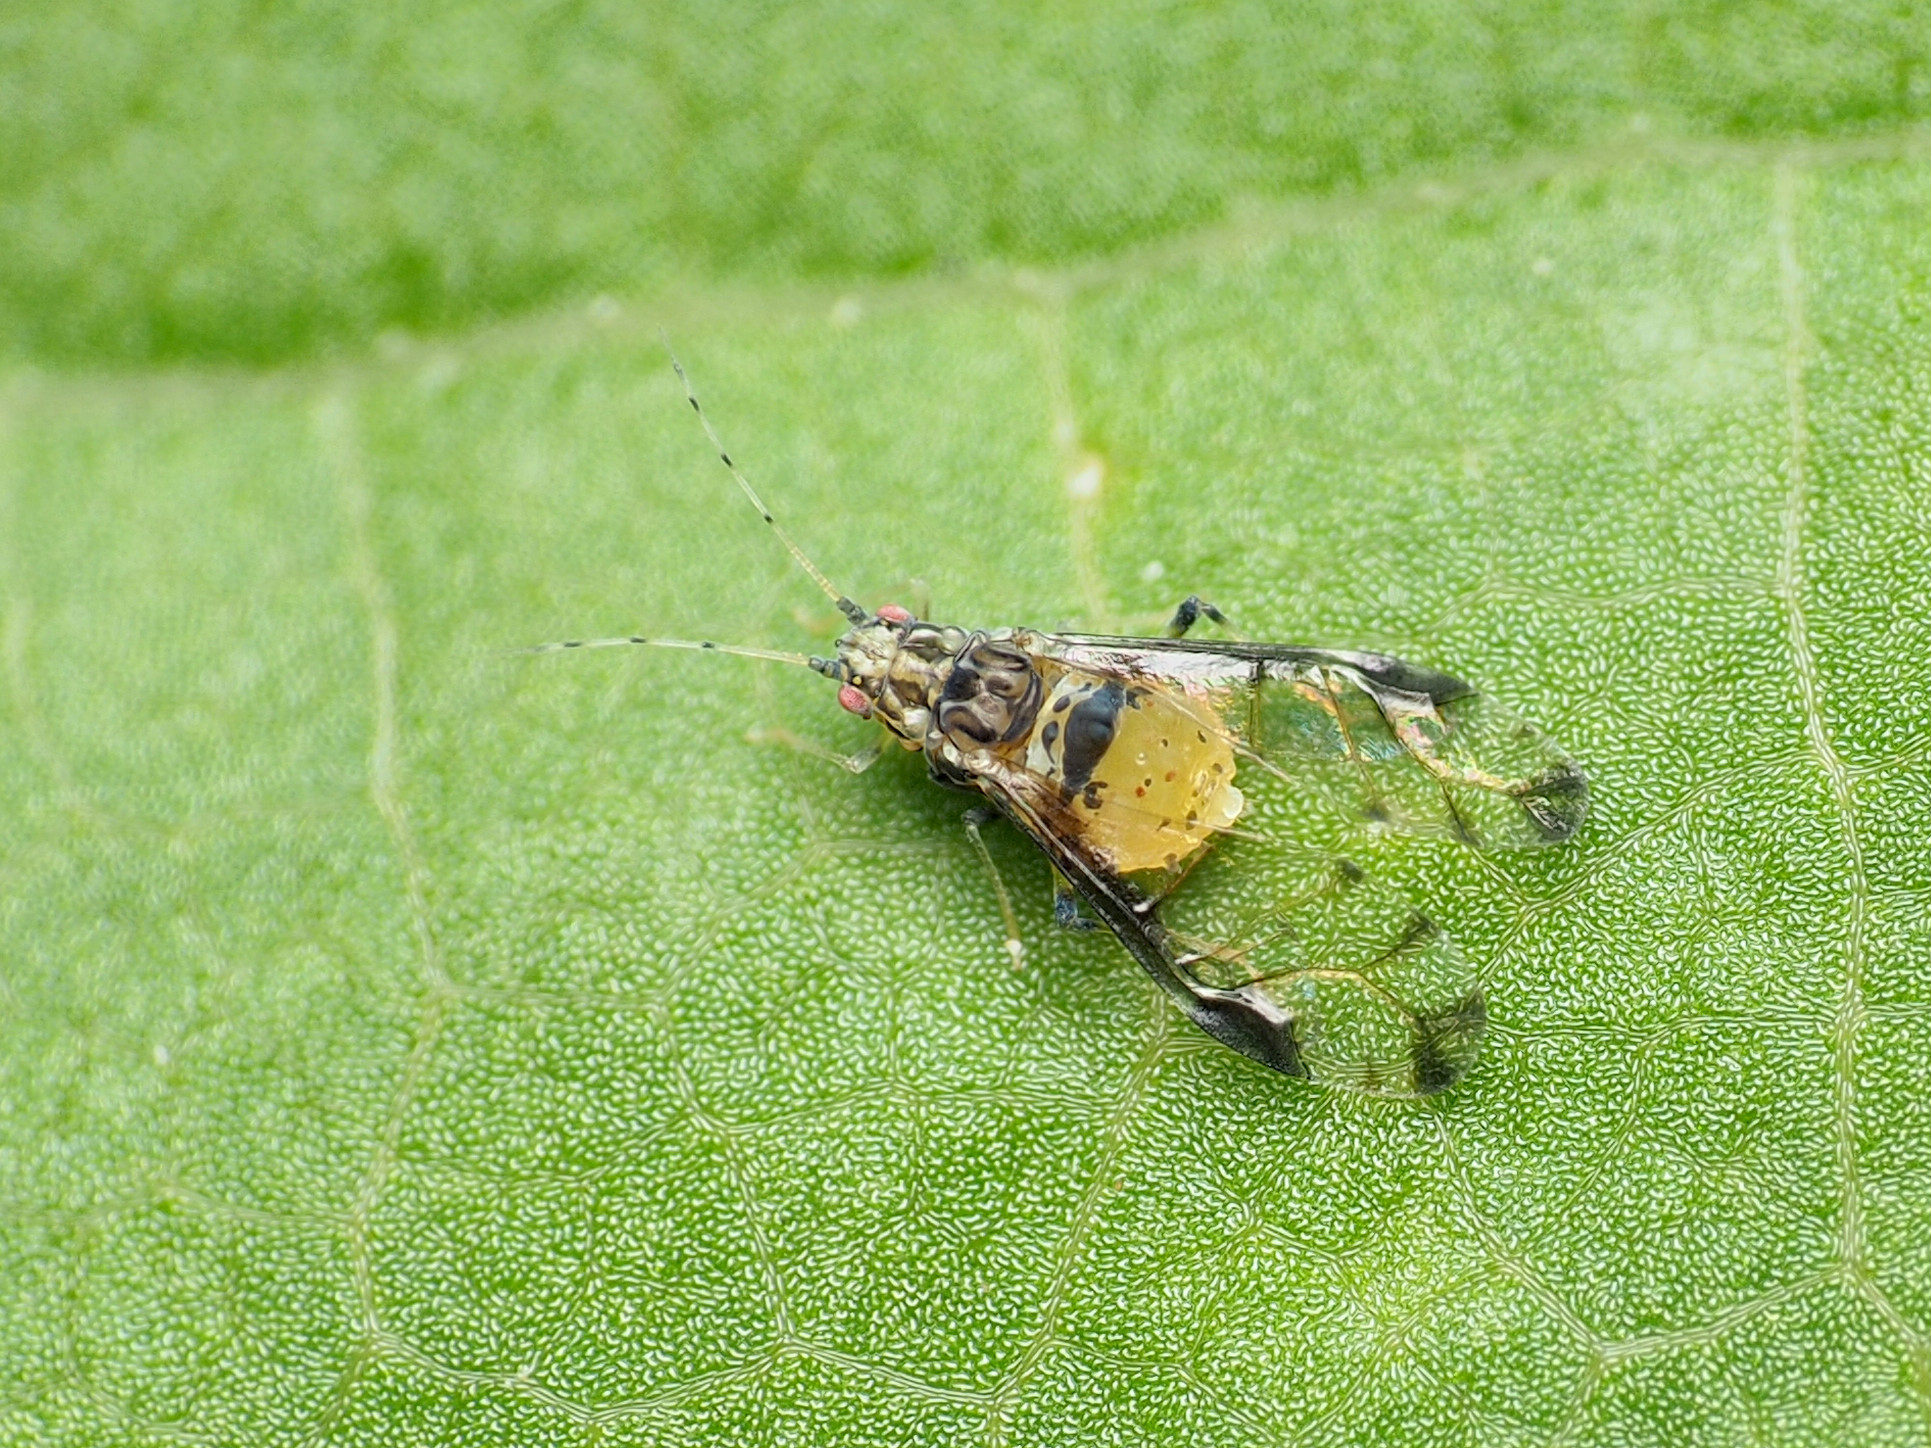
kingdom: Animalia
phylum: Arthropoda
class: Insecta
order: Hemiptera
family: Aphididae
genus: Sarucallis
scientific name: Sarucallis kahawaluokalani
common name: Crapemyrtle aphid
